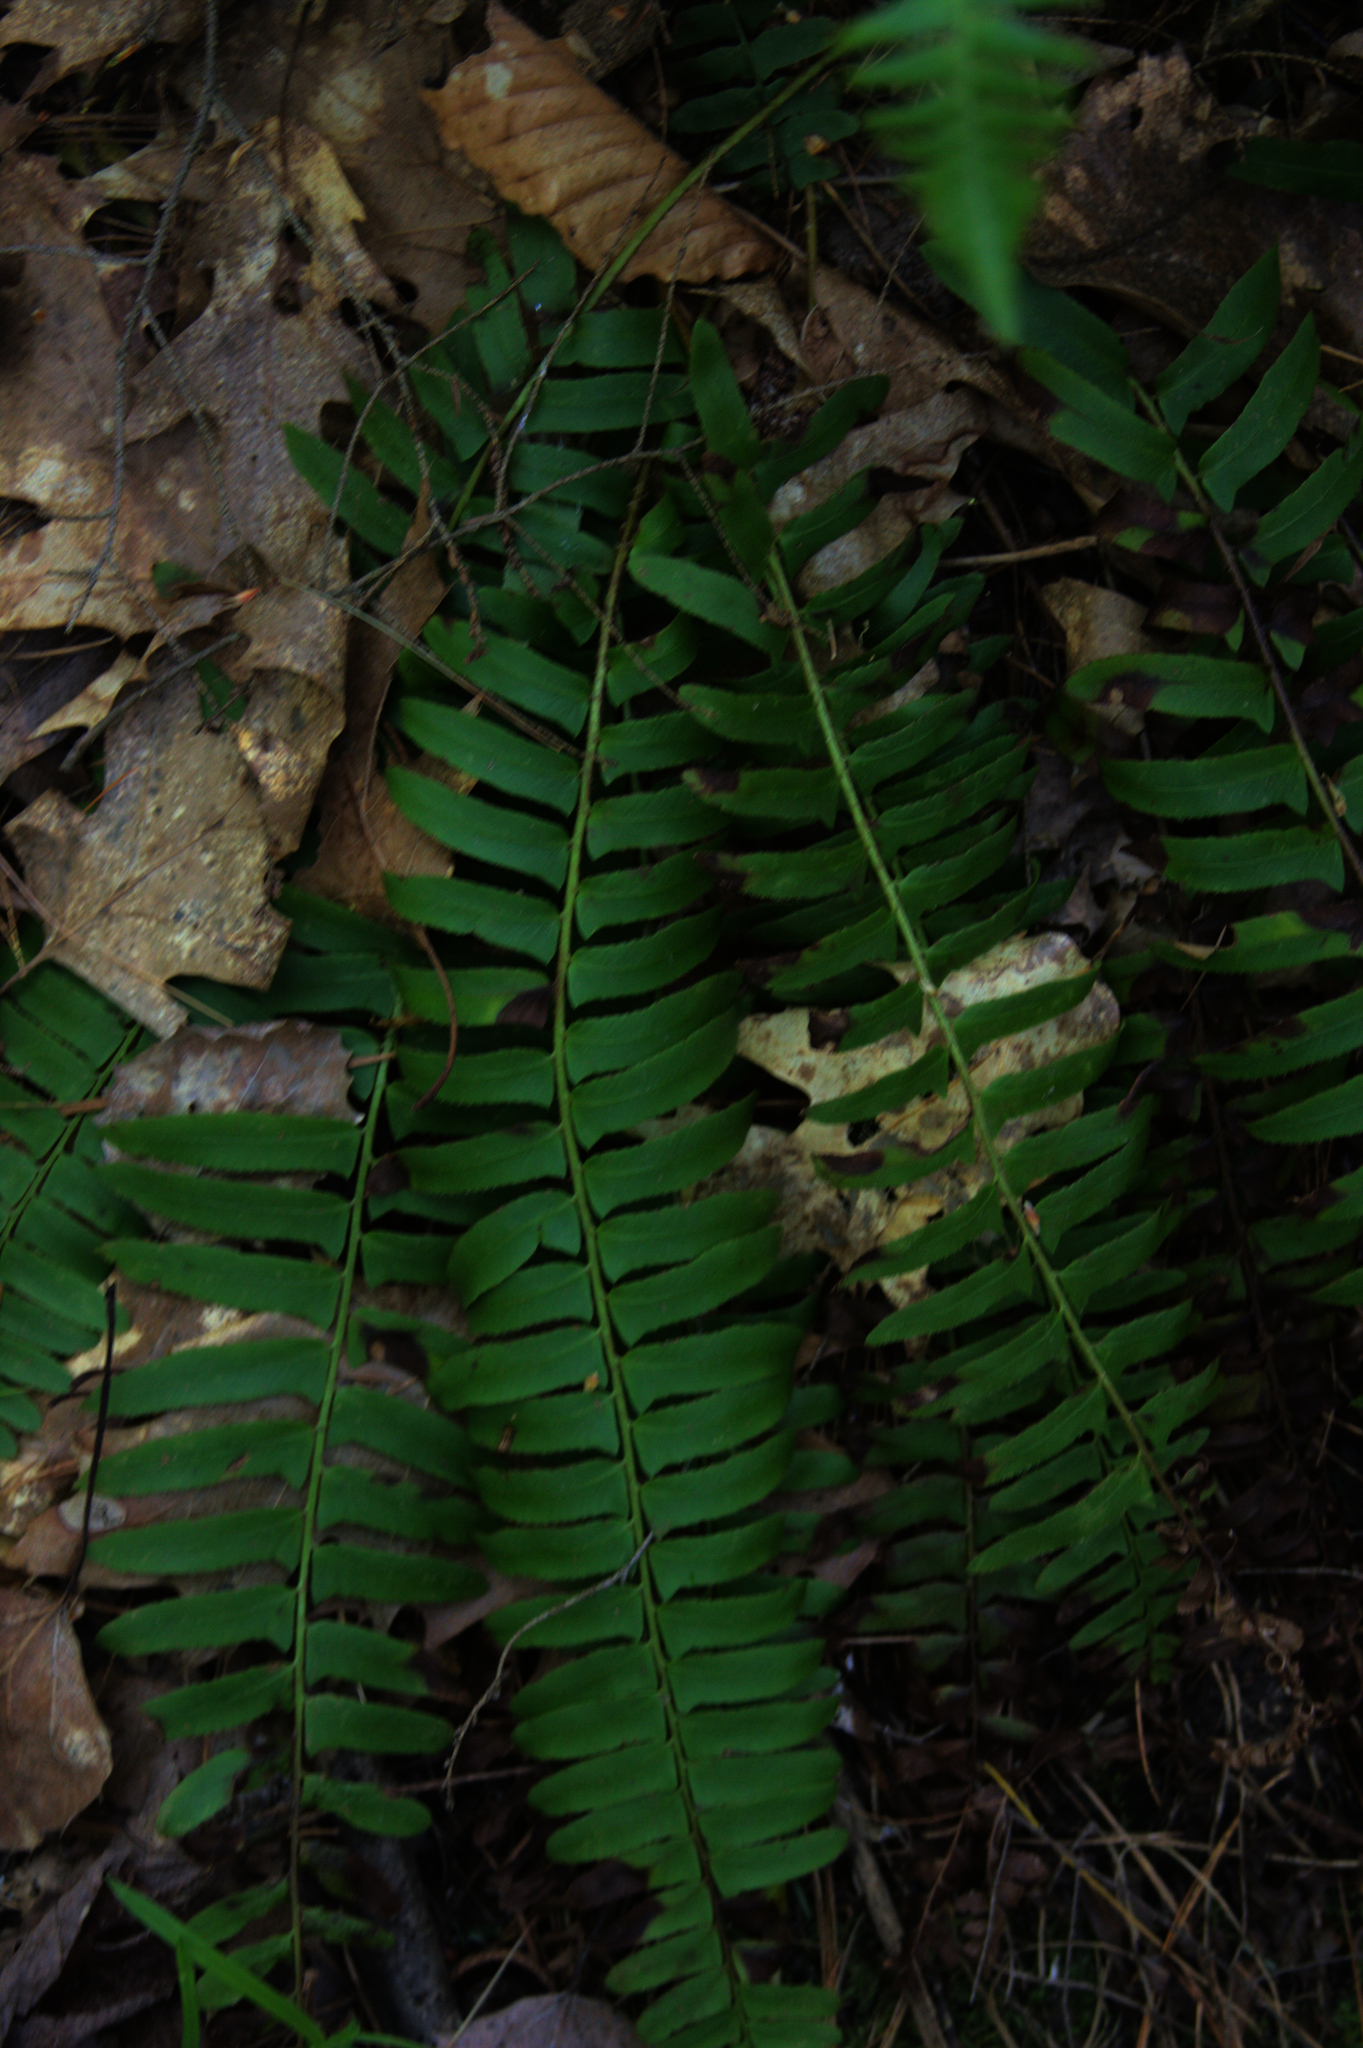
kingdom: Plantae
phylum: Tracheophyta
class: Polypodiopsida
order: Polypodiales
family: Dryopteridaceae
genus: Polystichum
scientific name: Polystichum acrostichoides
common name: Christmas fern
